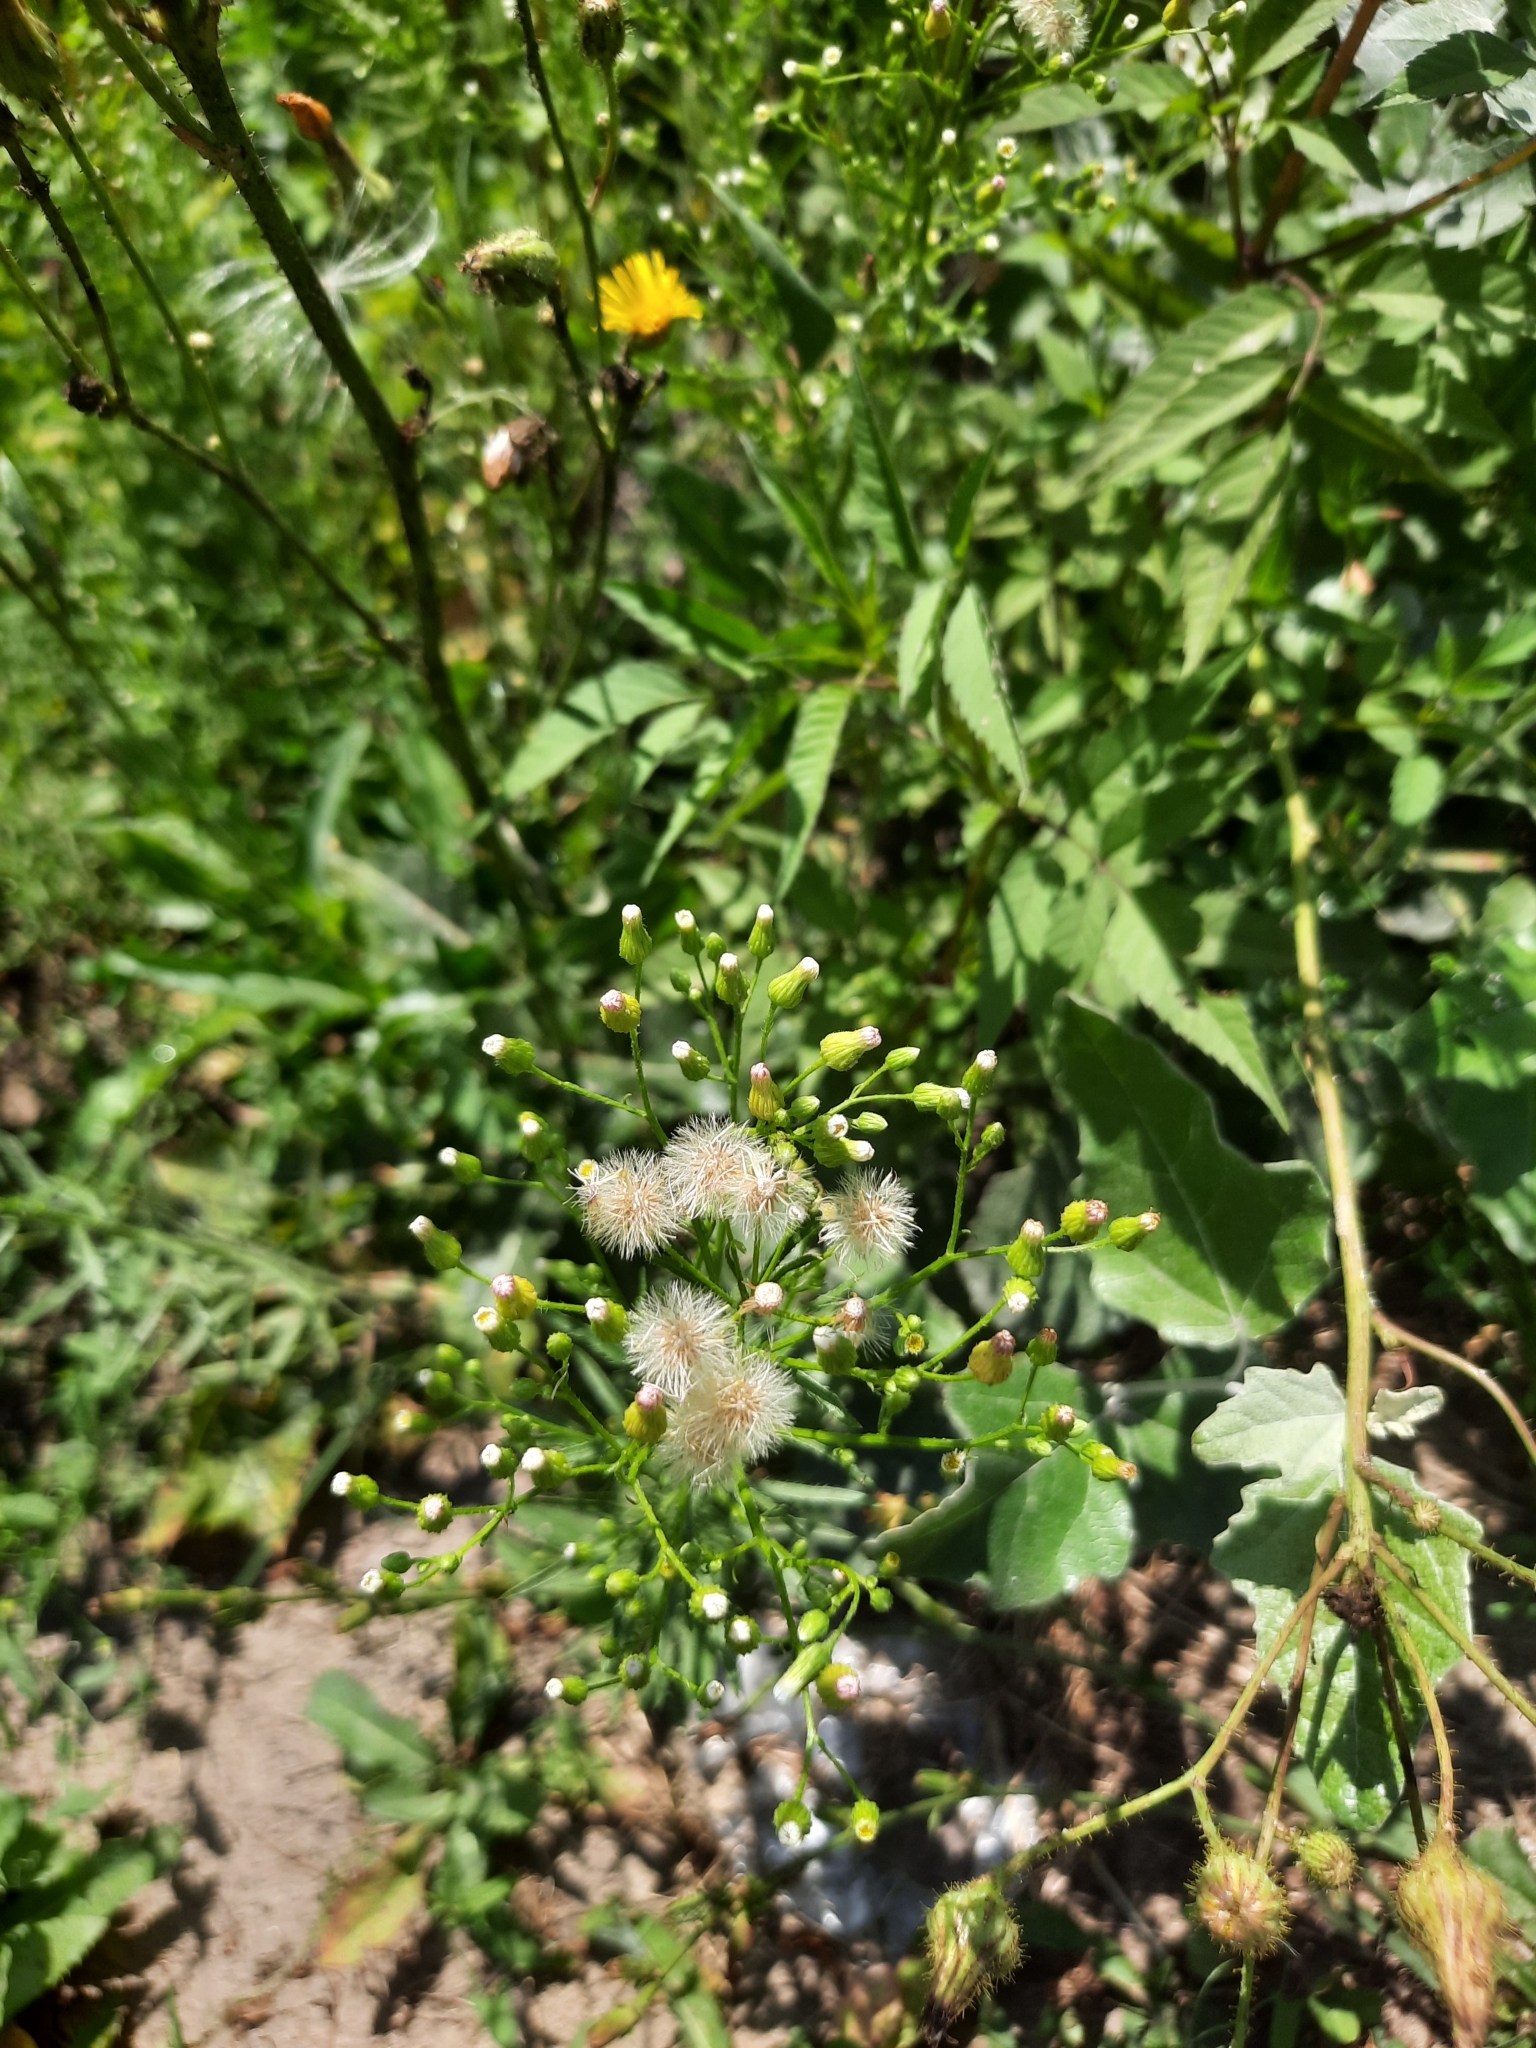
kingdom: Plantae
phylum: Tracheophyta
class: Magnoliopsida
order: Asterales
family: Asteraceae
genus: Erigeron
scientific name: Erigeron canadensis
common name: Canadian fleabane
